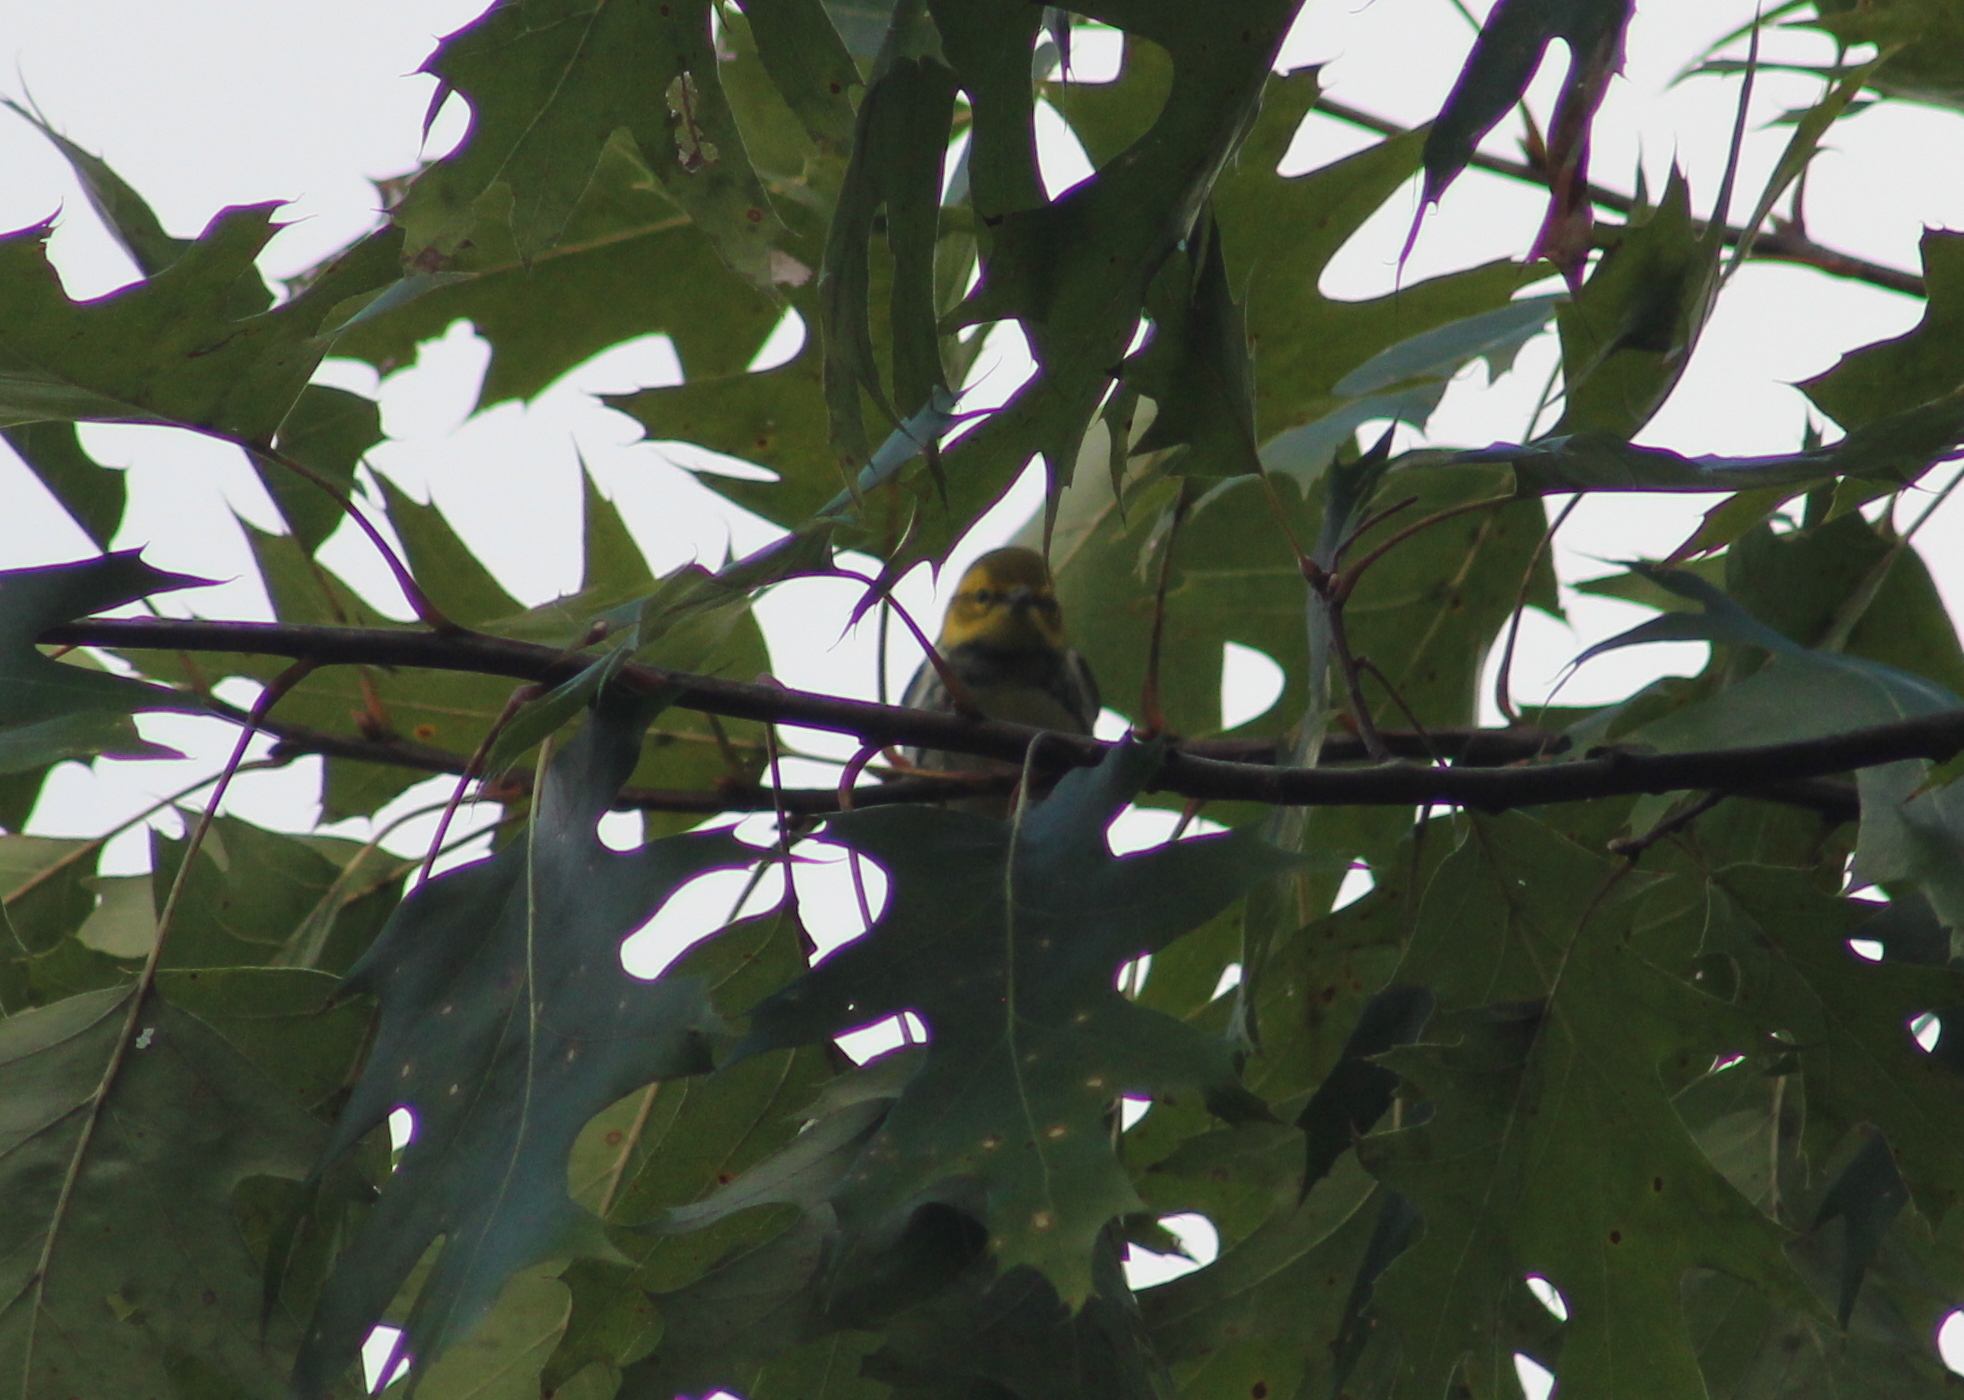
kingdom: Animalia
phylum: Chordata
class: Aves
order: Passeriformes
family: Parulidae
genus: Setophaga
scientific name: Setophaga virens
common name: Black-throated green warbler
